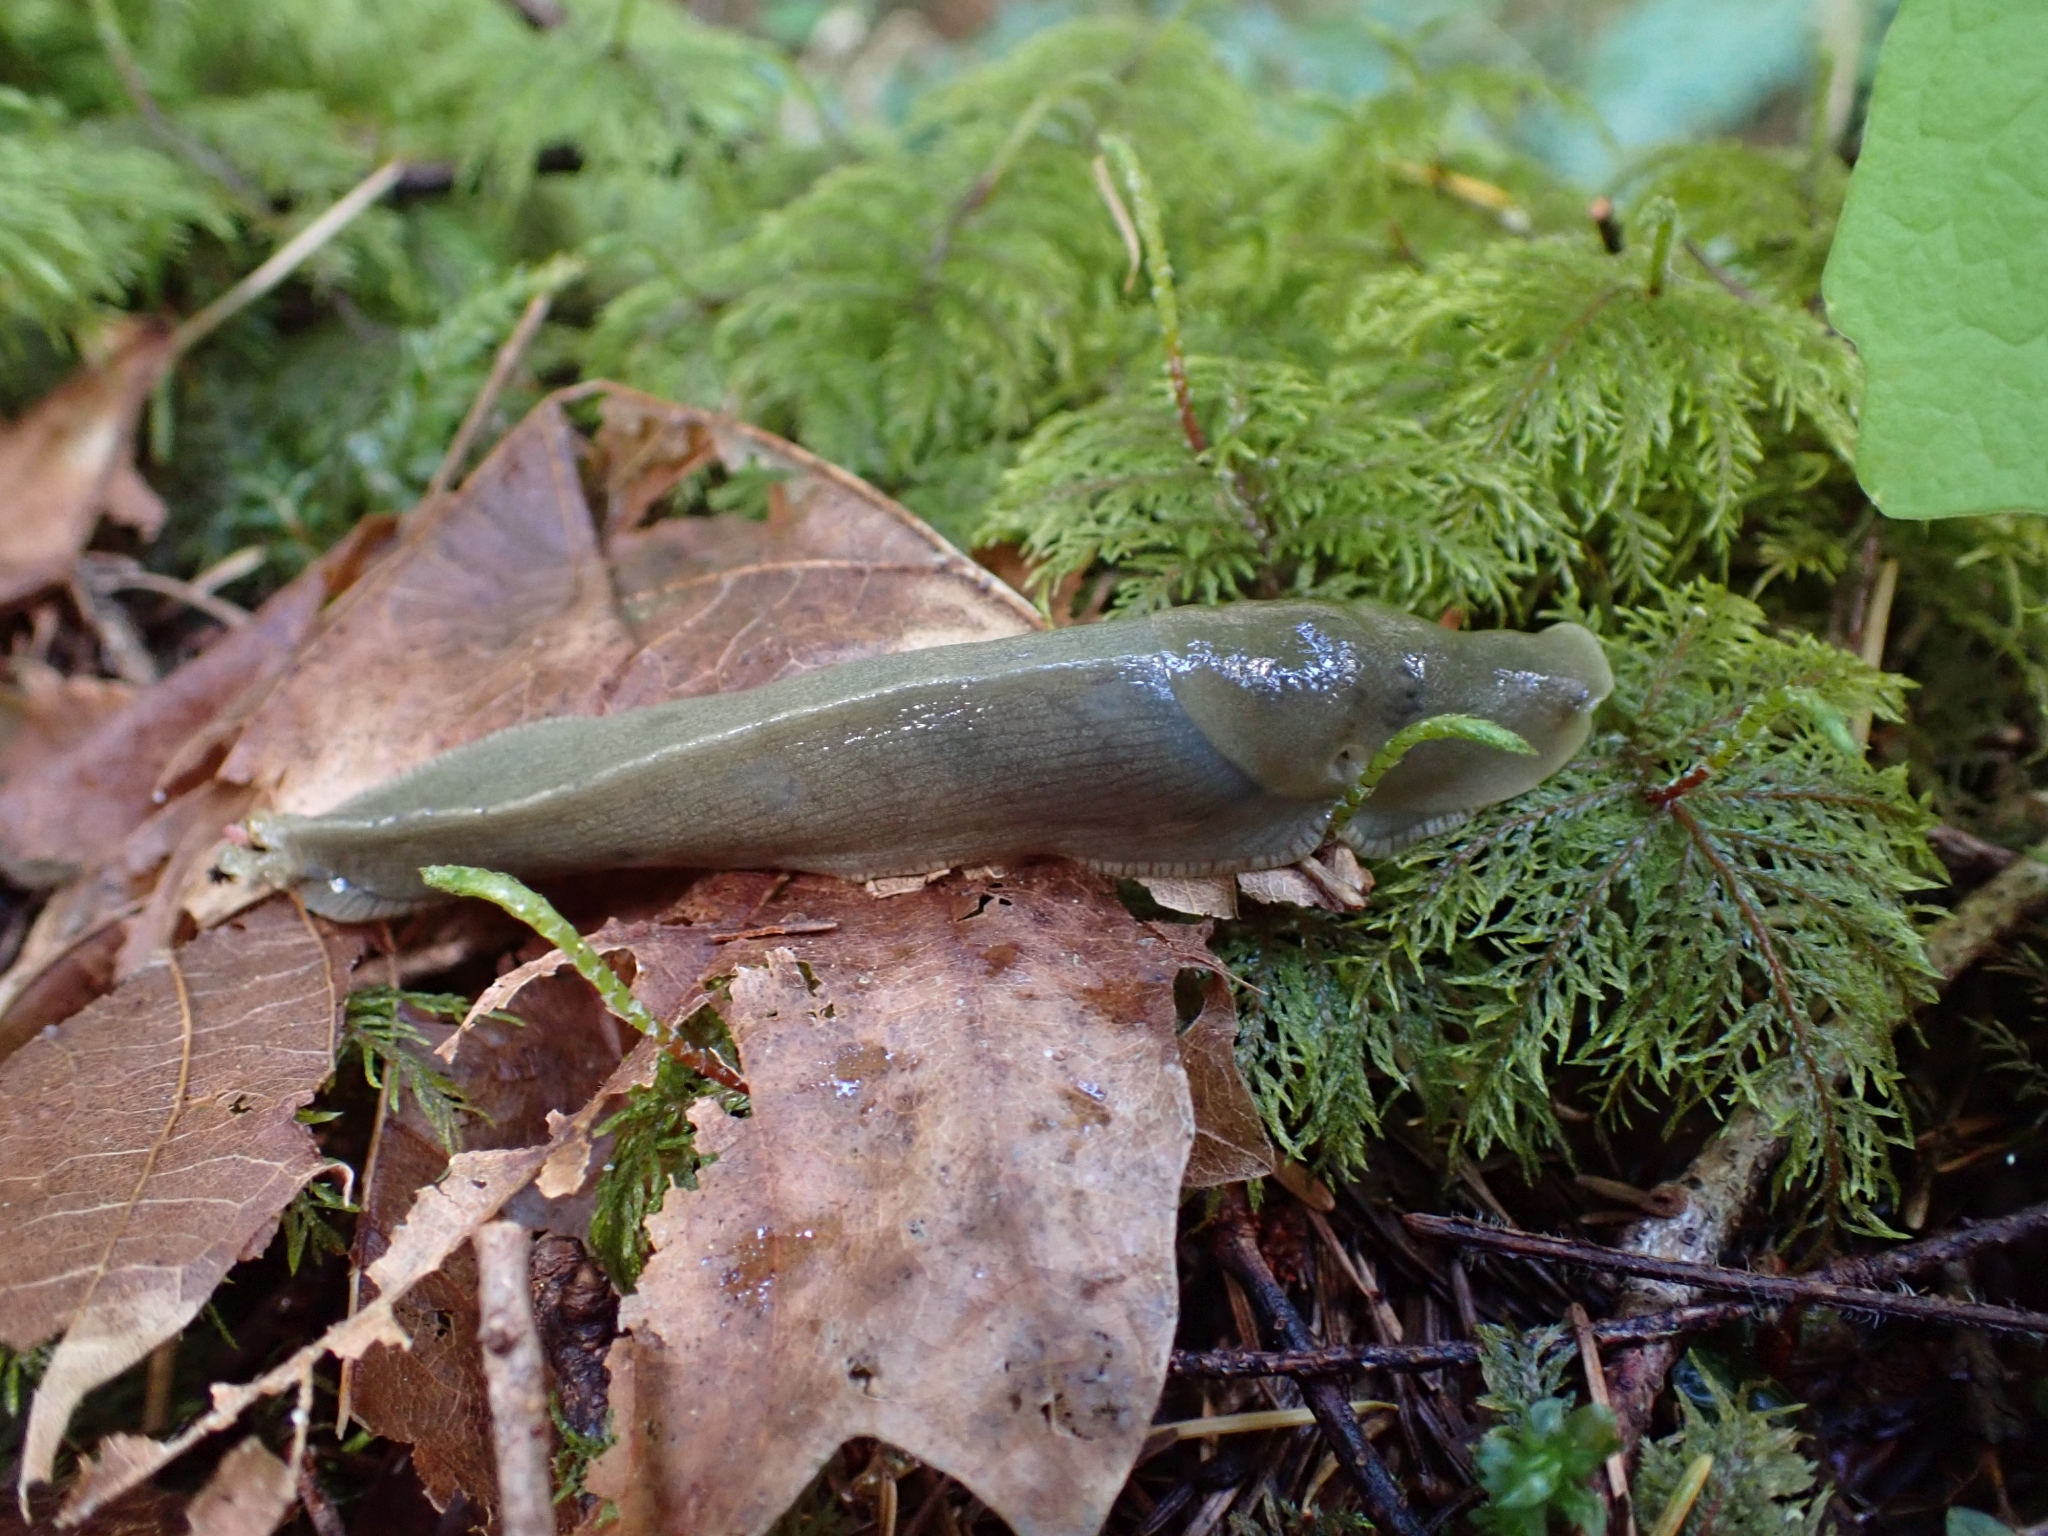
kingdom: Animalia
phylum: Mollusca
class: Gastropoda
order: Stylommatophora
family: Ariolimacidae
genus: Ariolimax
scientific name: Ariolimax columbianus
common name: Pacific banana slug
